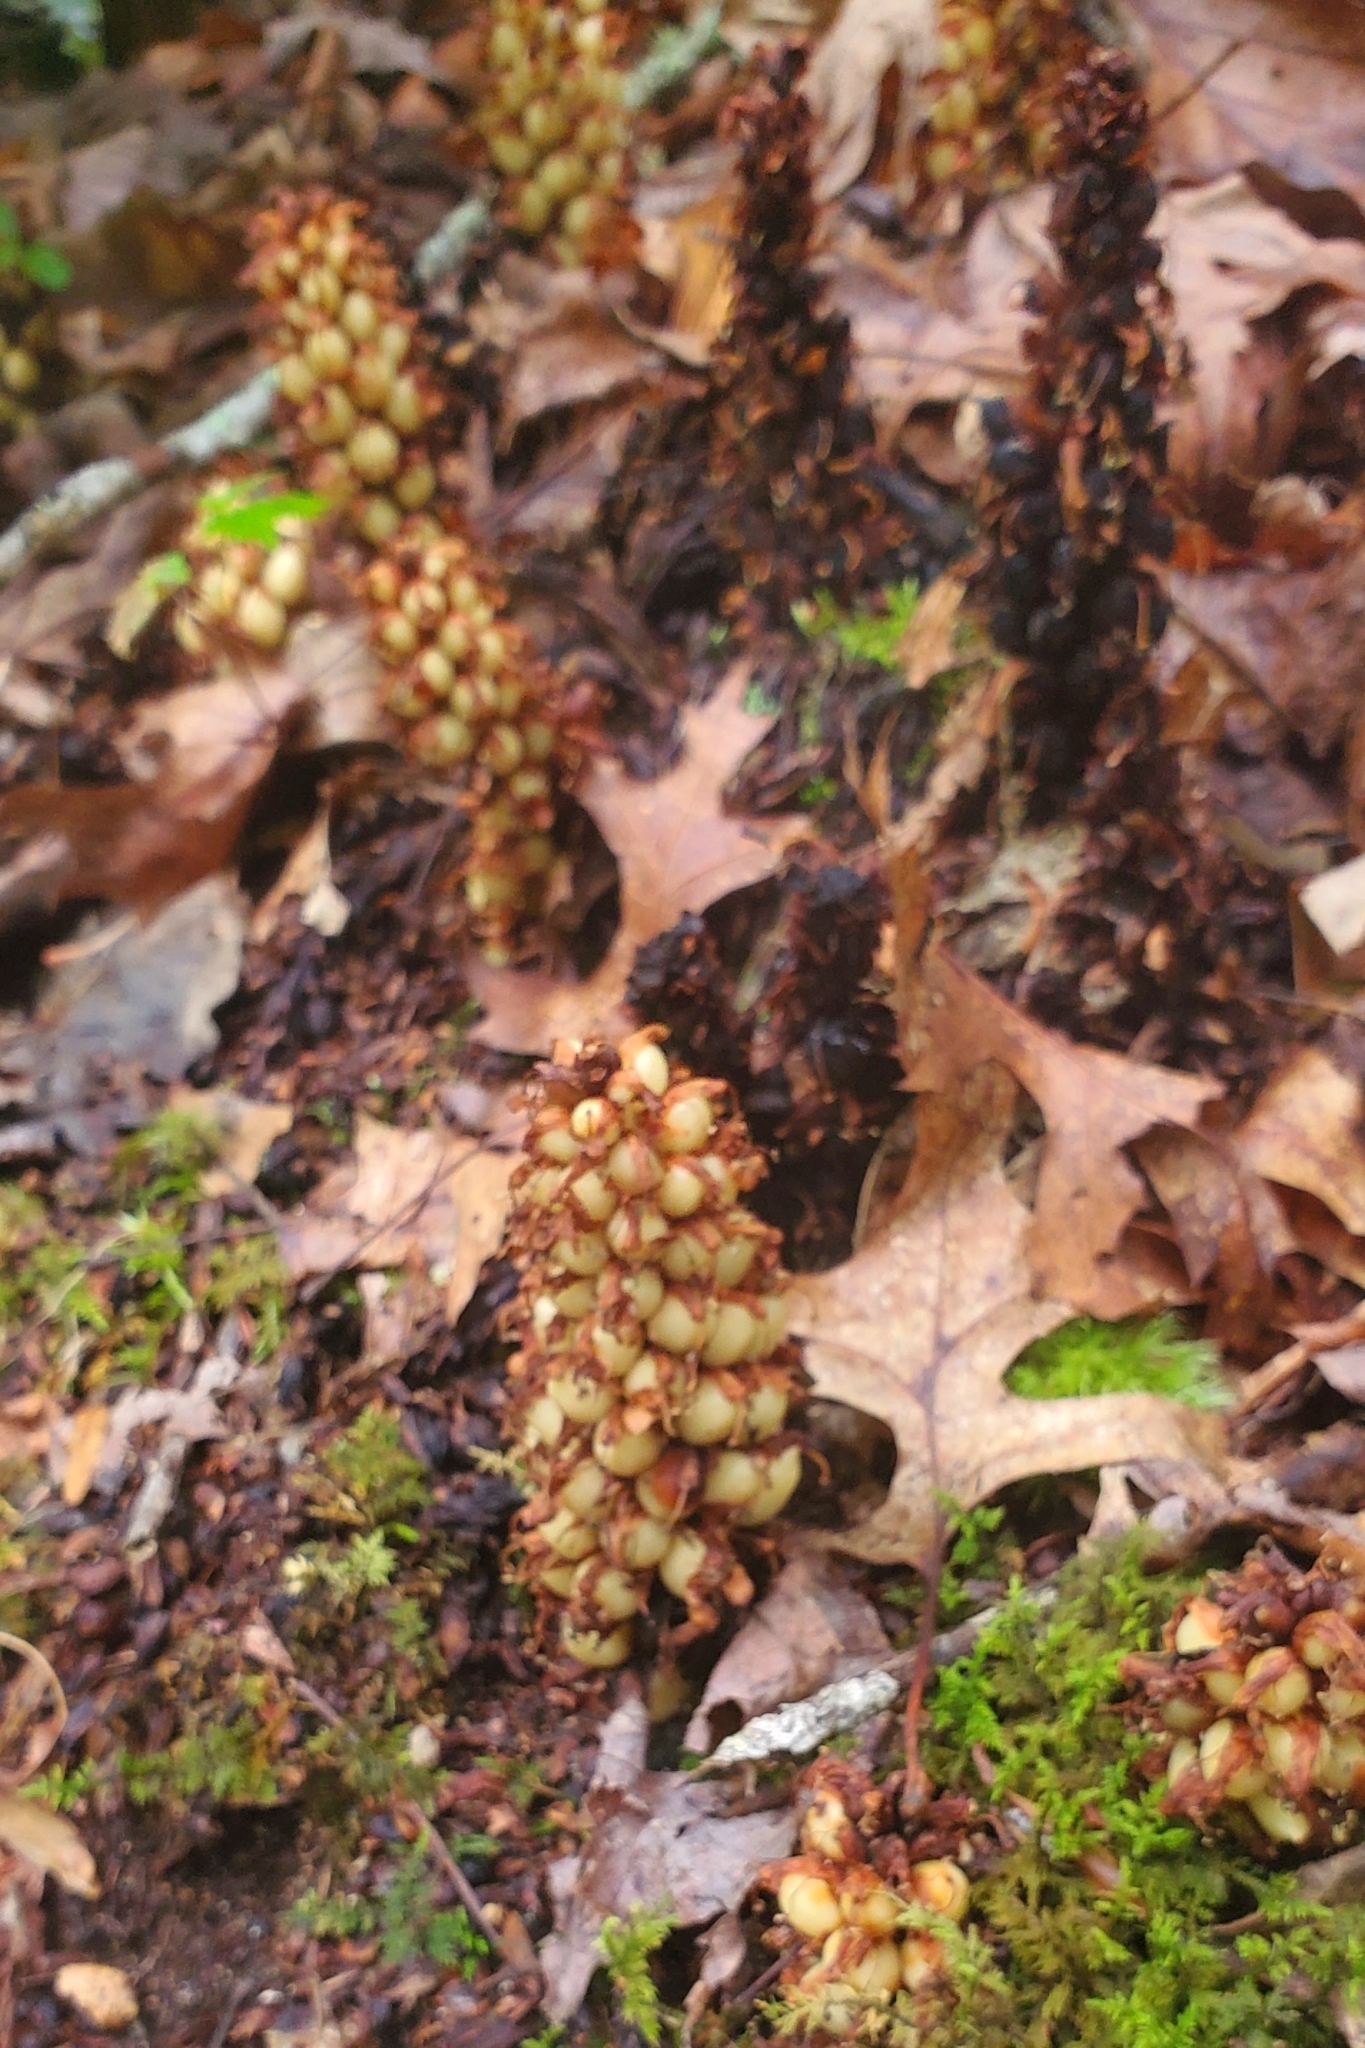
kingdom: Plantae
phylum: Tracheophyta
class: Magnoliopsida
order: Lamiales
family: Orobanchaceae
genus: Conopholis
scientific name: Conopholis americana
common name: American cancer-root
